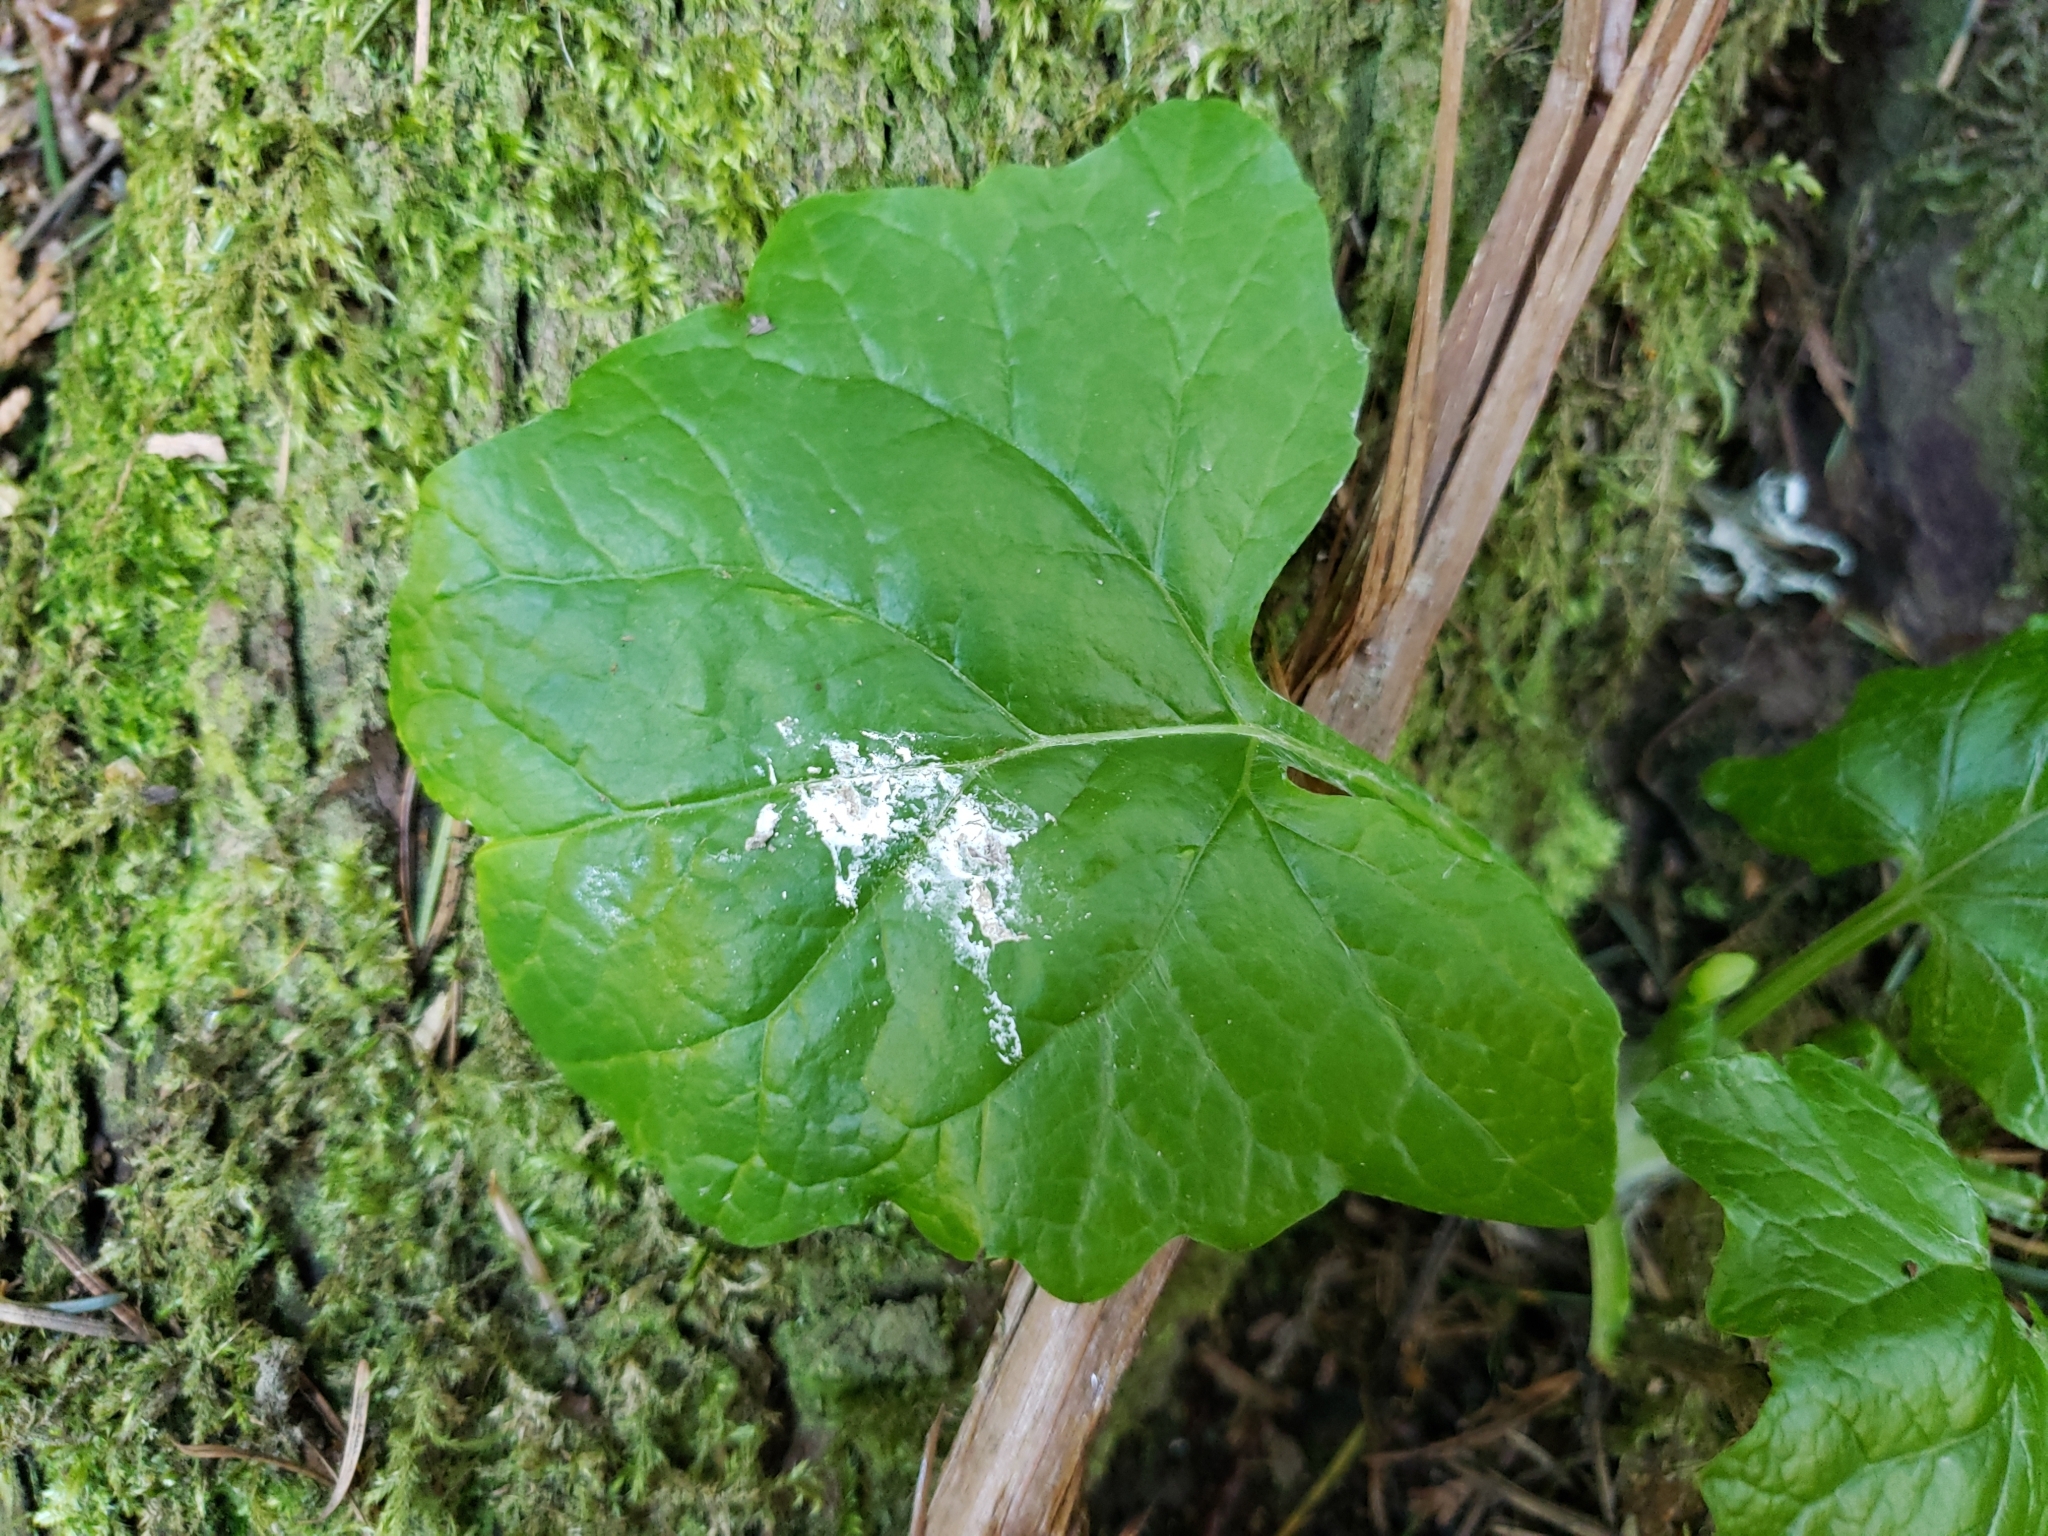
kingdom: Plantae
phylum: Tracheophyta
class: Magnoliopsida
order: Asterales
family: Asteraceae
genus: Adenocaulon
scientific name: Adenocaulon bicolor
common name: Trailplant
